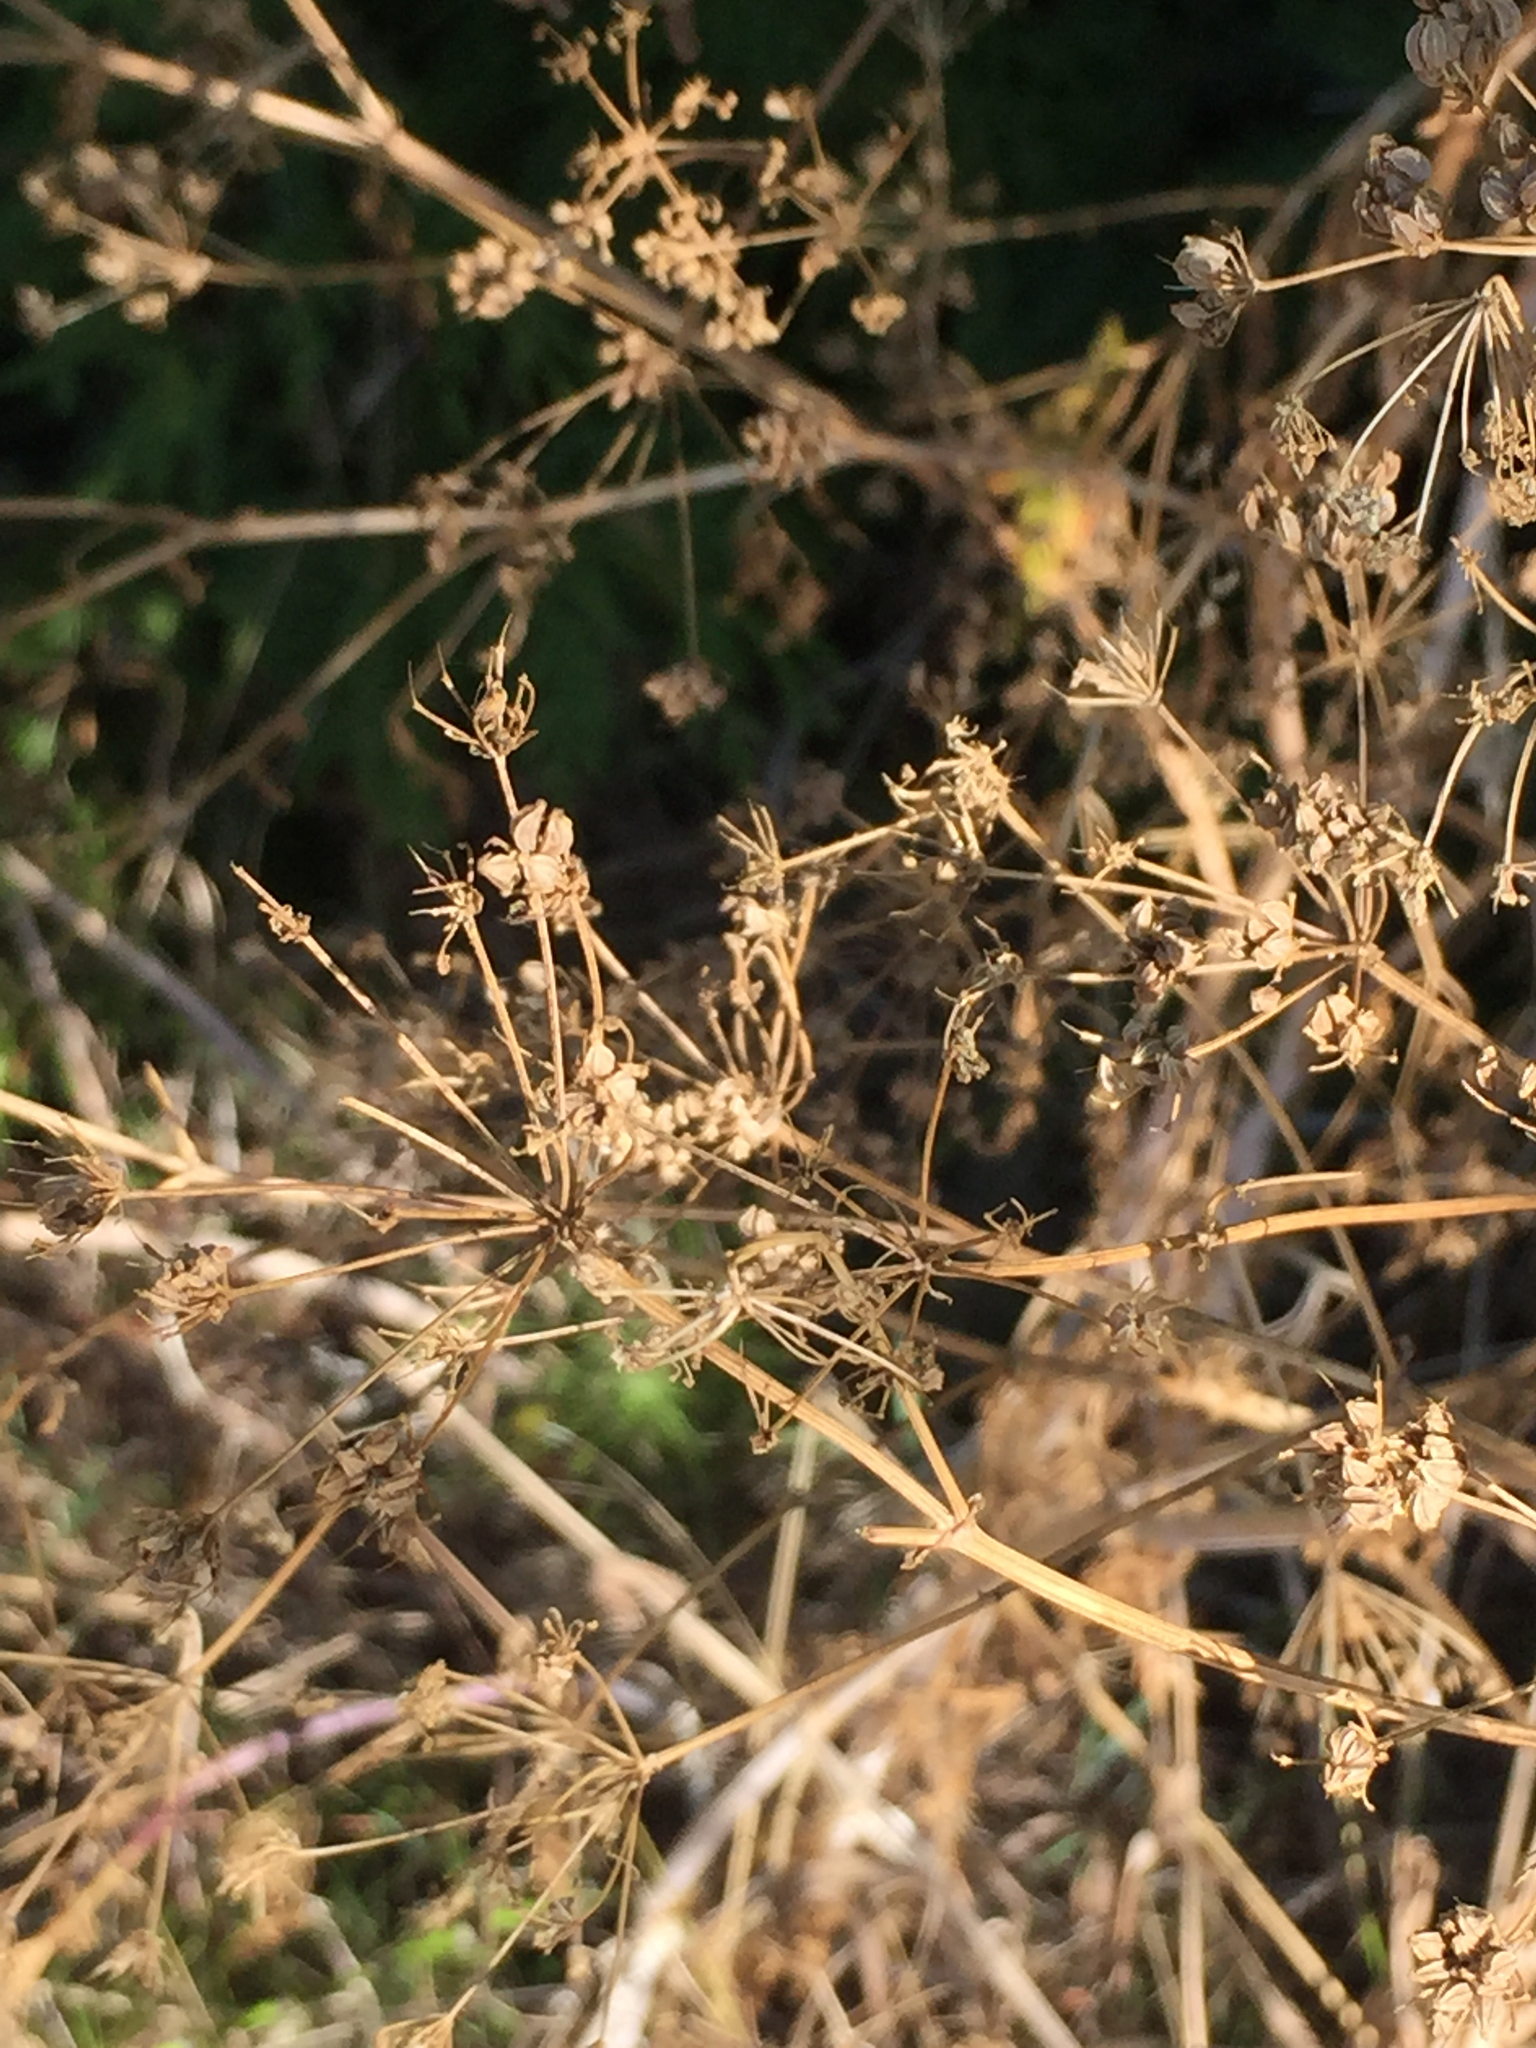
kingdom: Plantae
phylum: Tracheophyta
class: Magnoliopsida
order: Apiales
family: Apiaceae
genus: Conium
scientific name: Conium maculatum
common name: Hemlock
